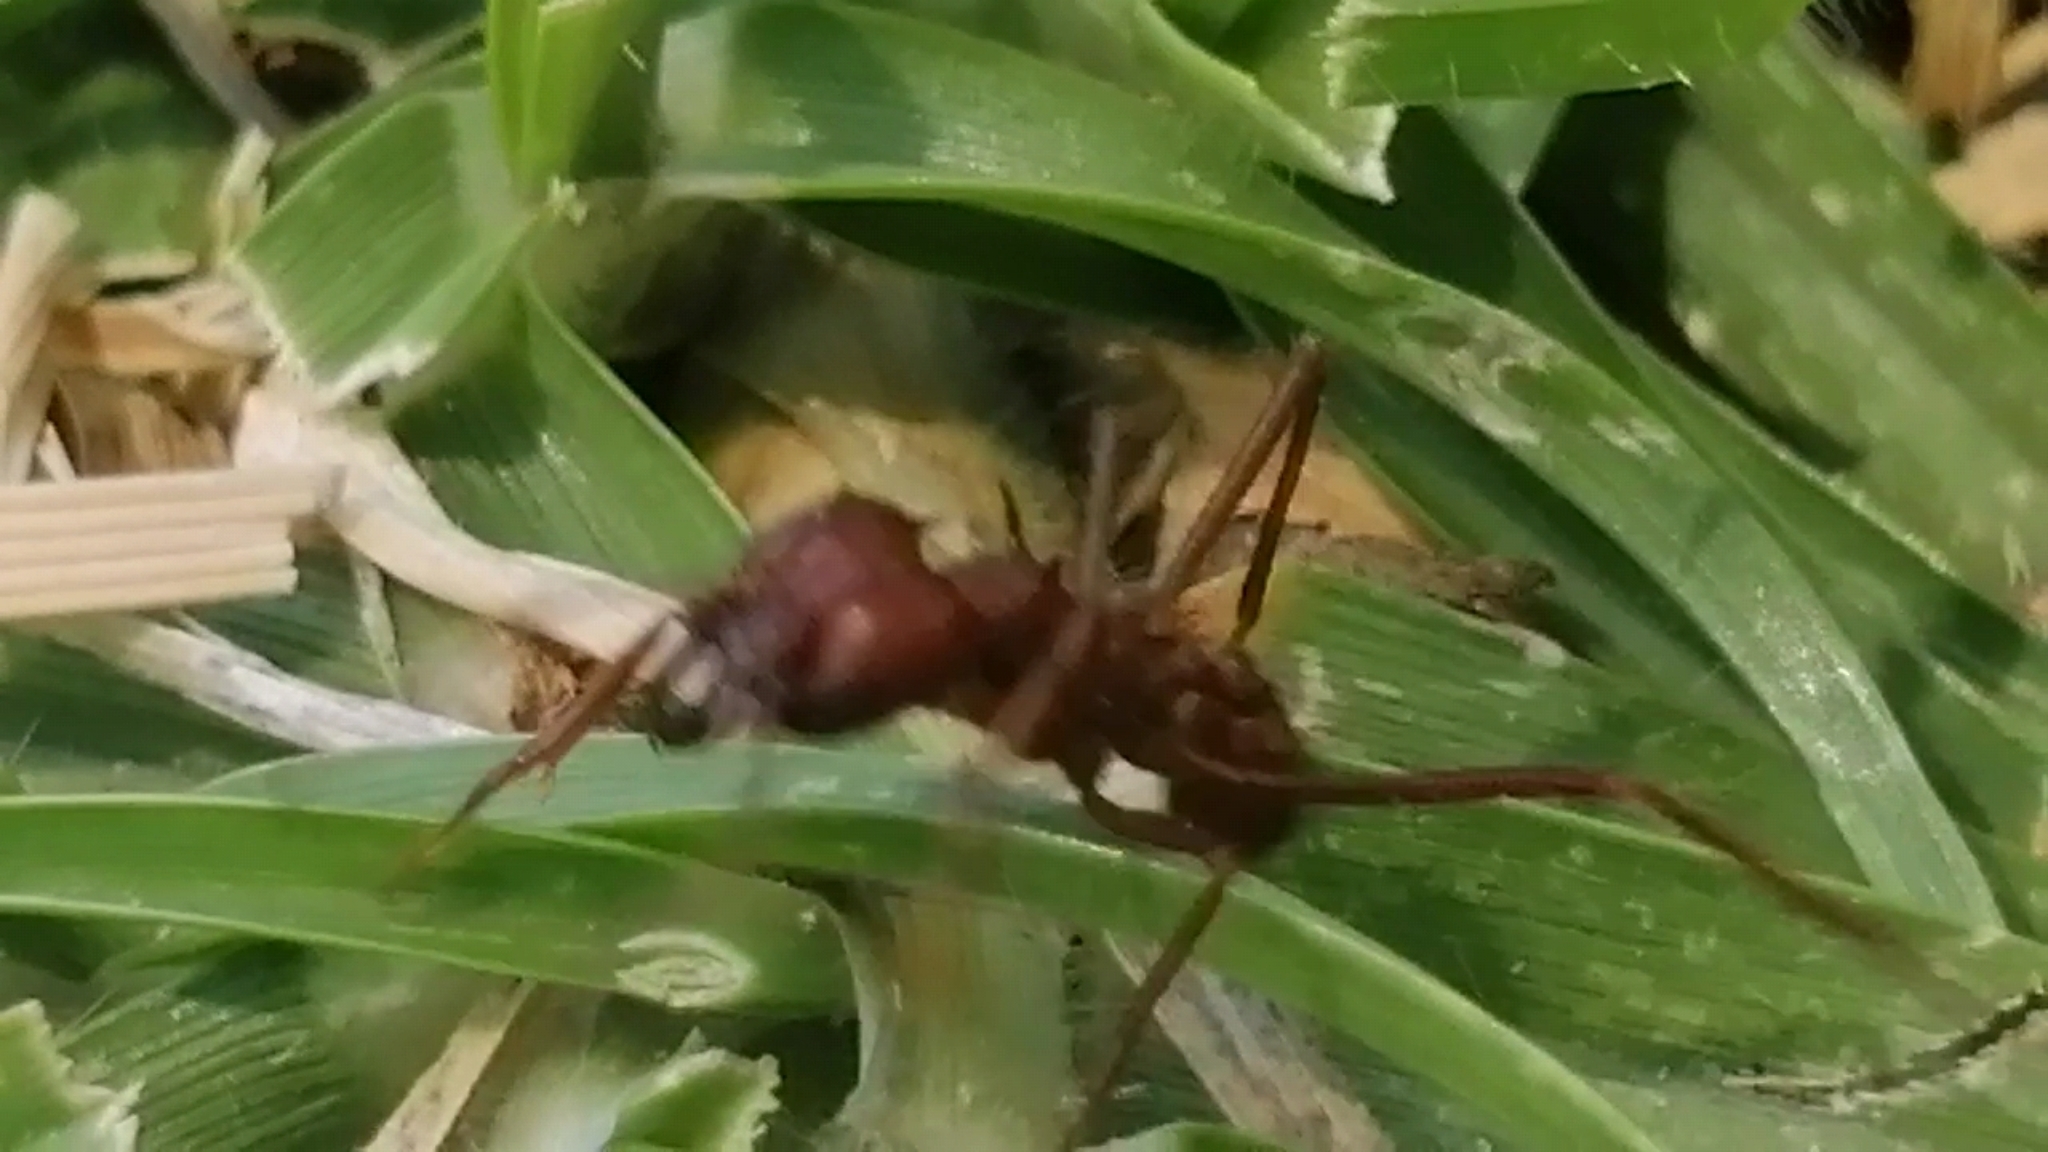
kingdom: Animalia
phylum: Arthropoda
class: Insecta
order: Hymenoptera
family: Formicidae
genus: Atta
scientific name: Atta mexicana
